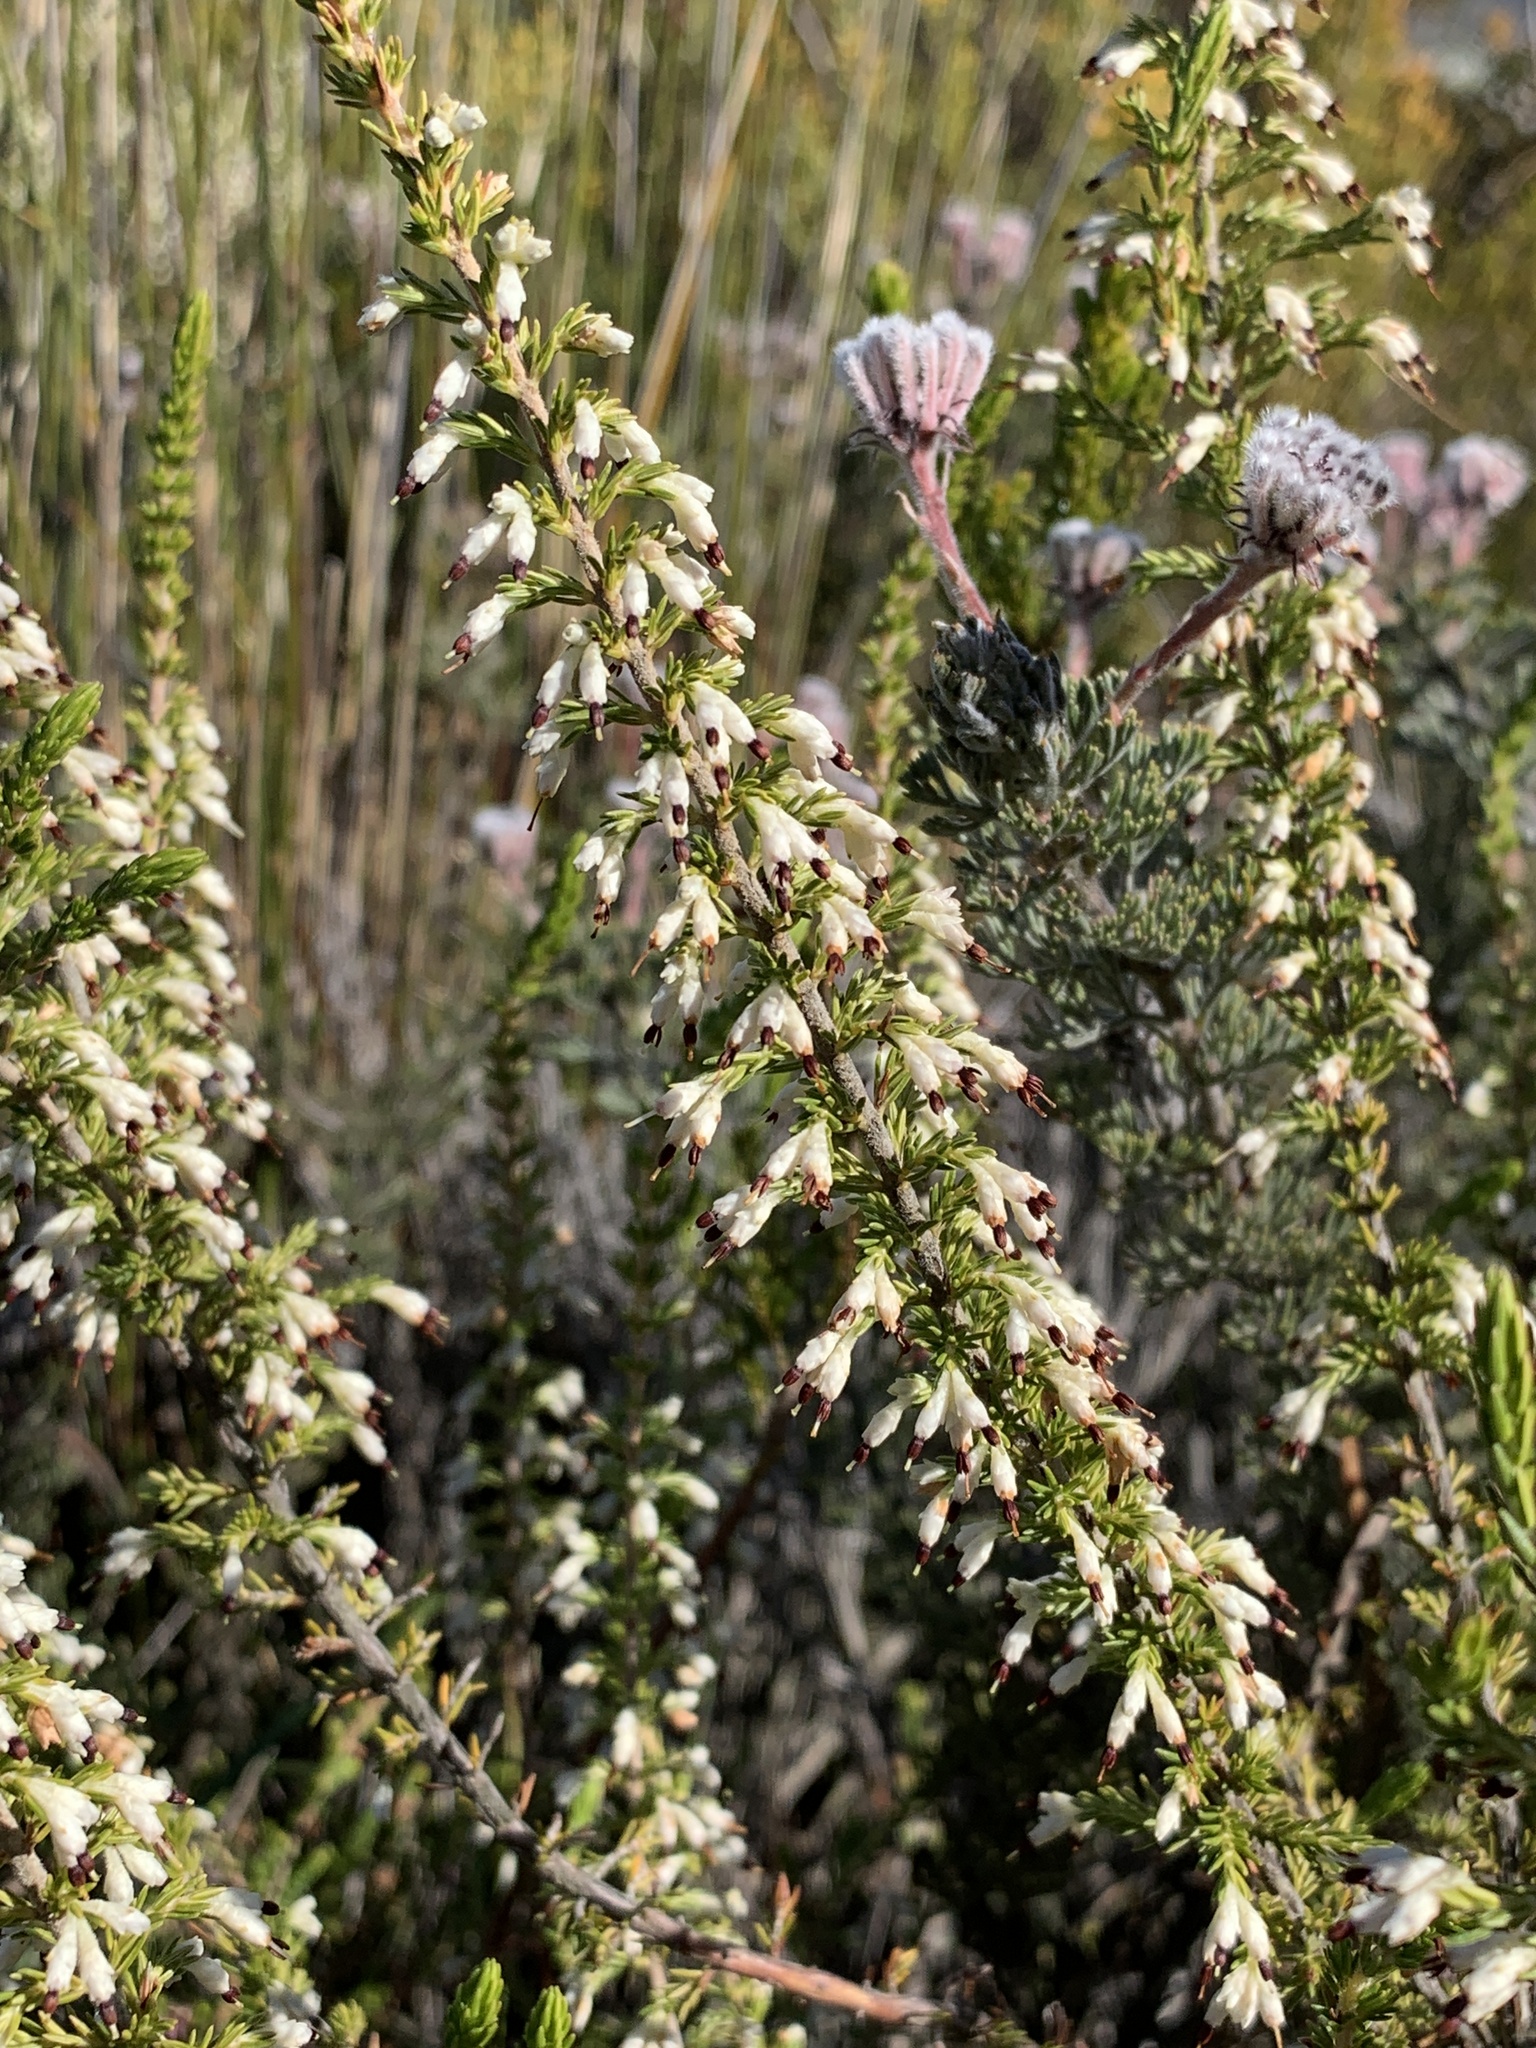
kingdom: Plantae
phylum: Tracheophyta
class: Magnoliopsida
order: Ericales
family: Ericaceae
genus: Erica
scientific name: Erica imbricata
